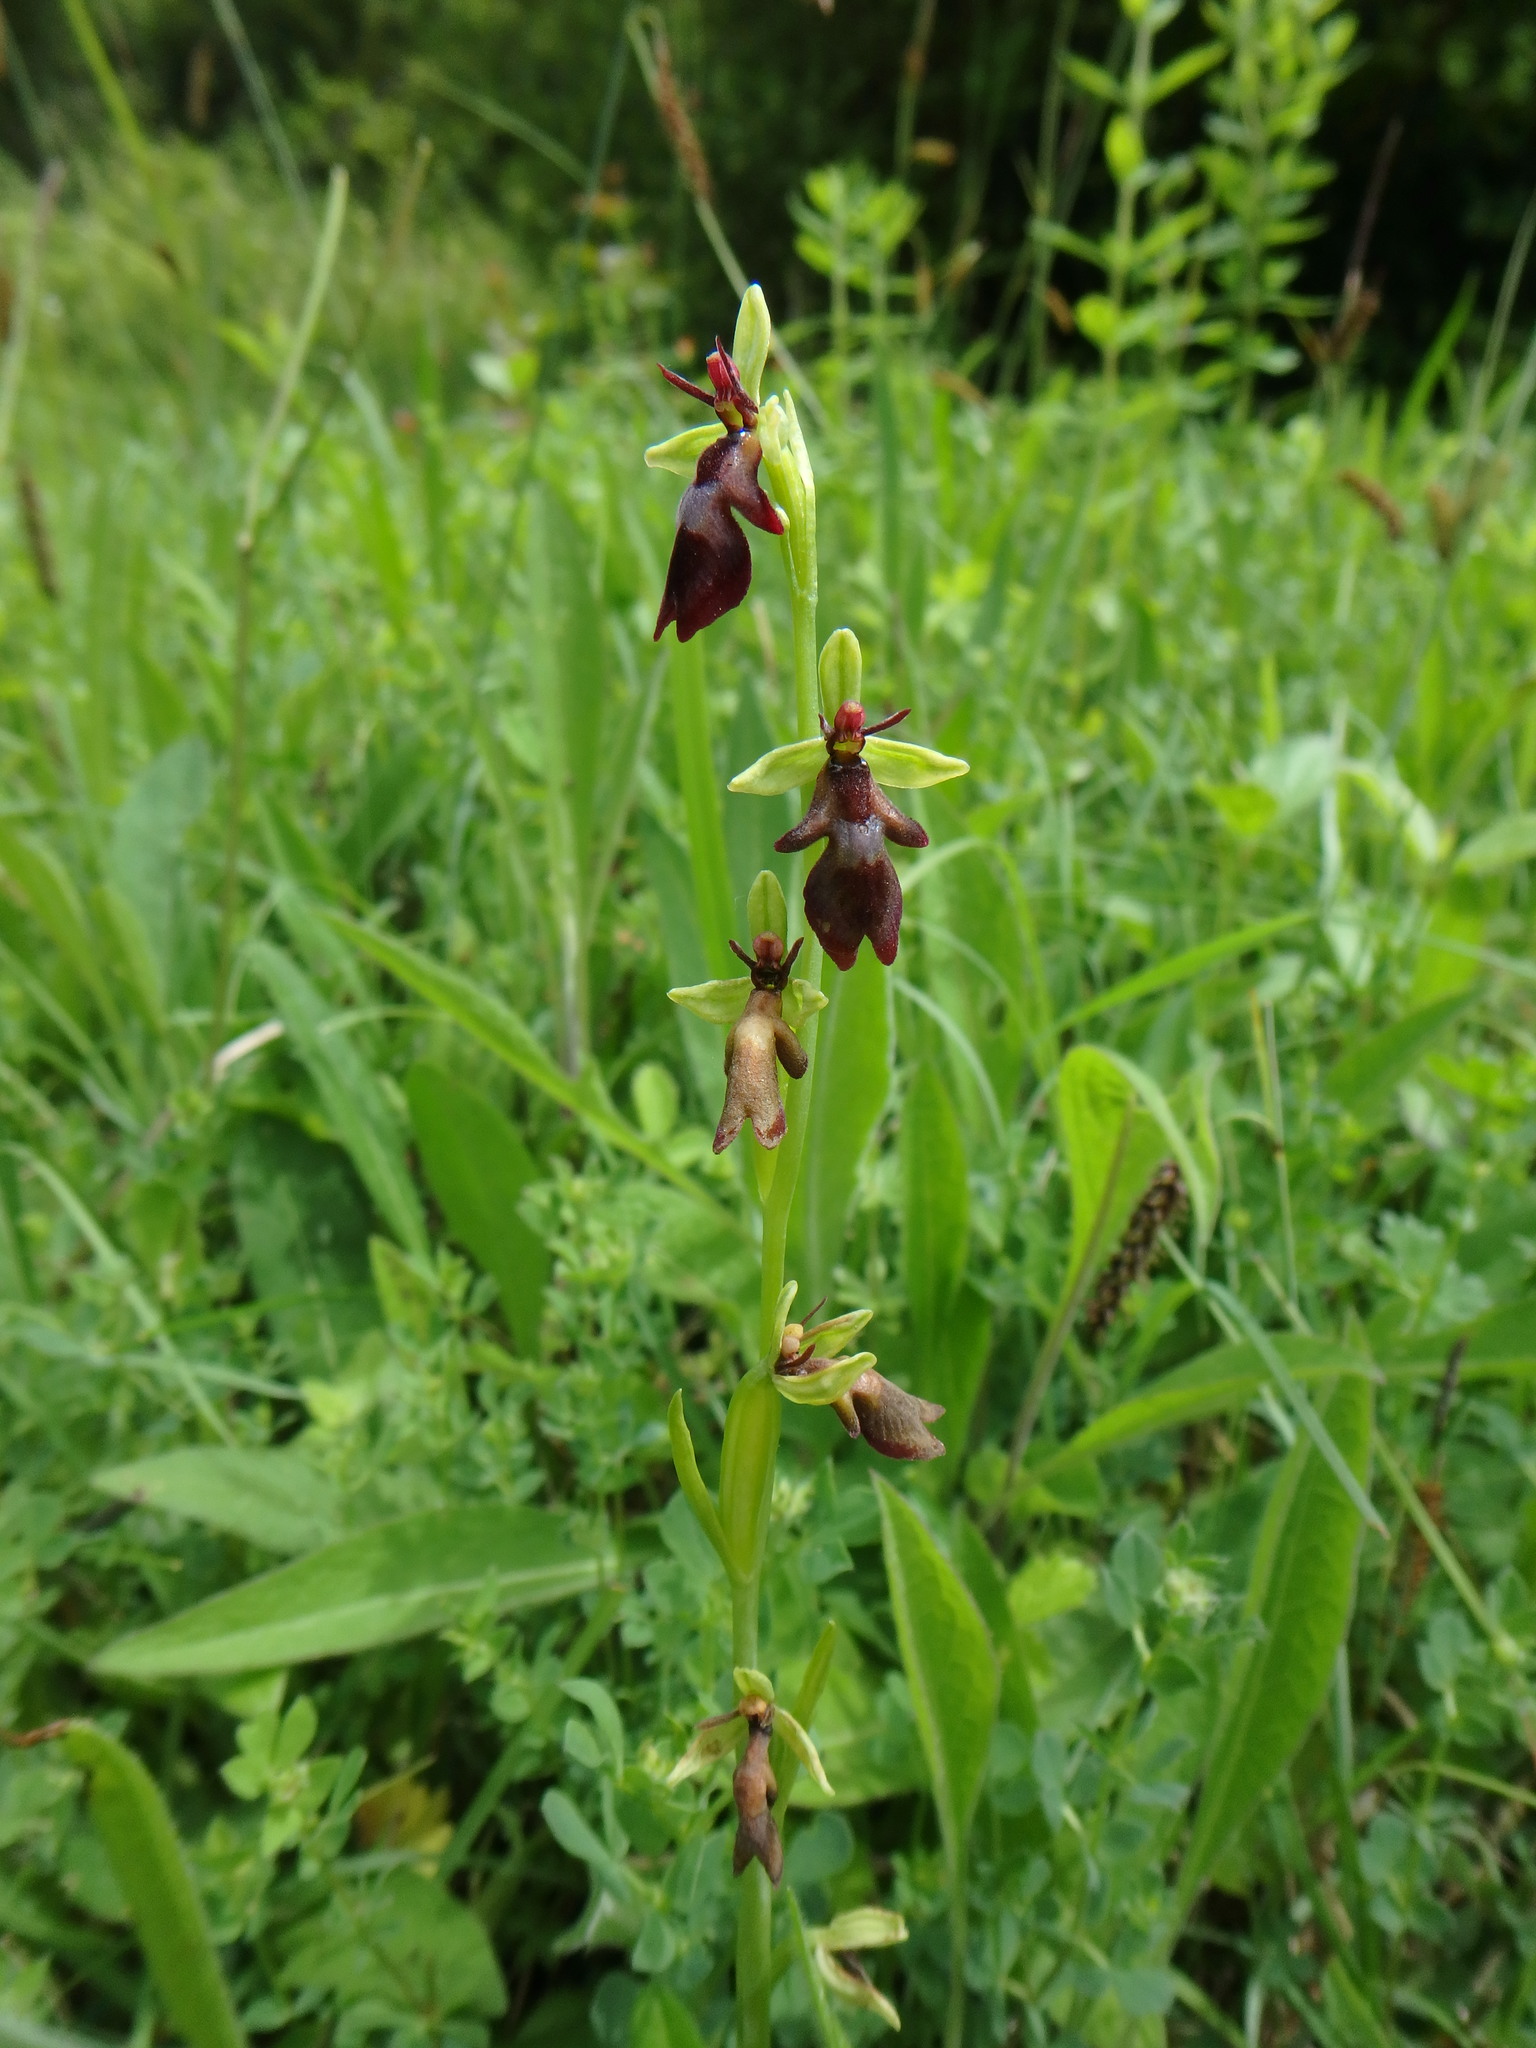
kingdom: Plantae
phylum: Tracheophyta
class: Liliopsida
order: Asparagales
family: Orchidaceae
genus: Ophrys
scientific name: Ophrys insectifera
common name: Fly orchid
